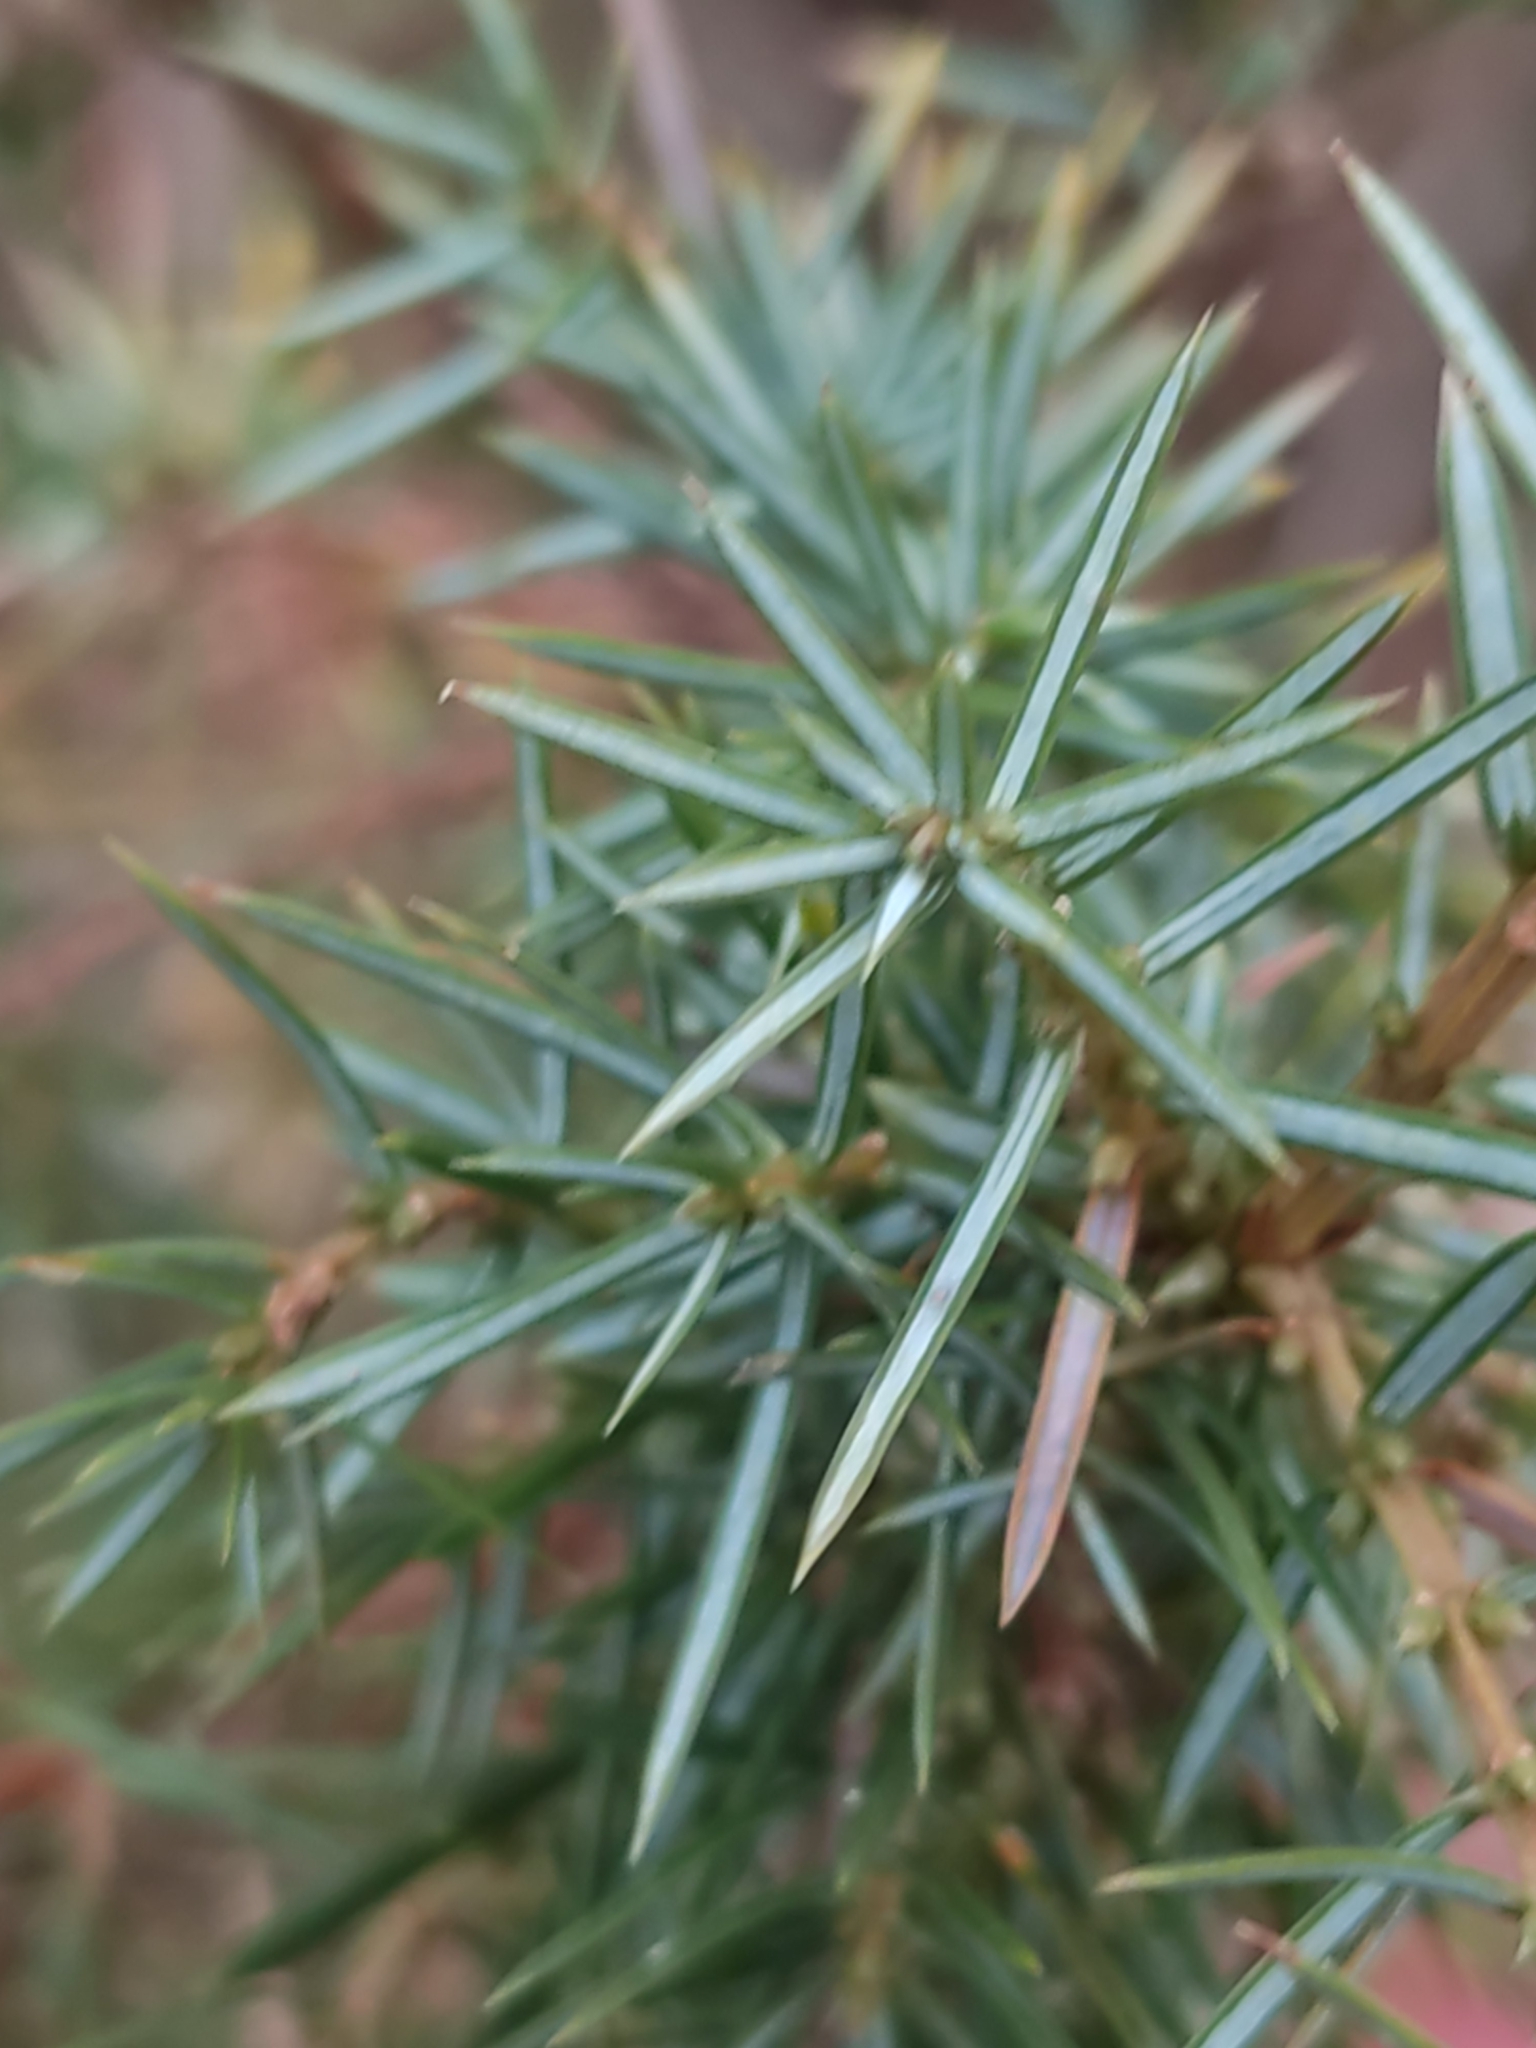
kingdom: Plantae
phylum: Tracheophyta
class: Pinopsida
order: Pinales
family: Cupressaceae
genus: Juniperus
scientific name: Juniperus communis
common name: Common juniper
